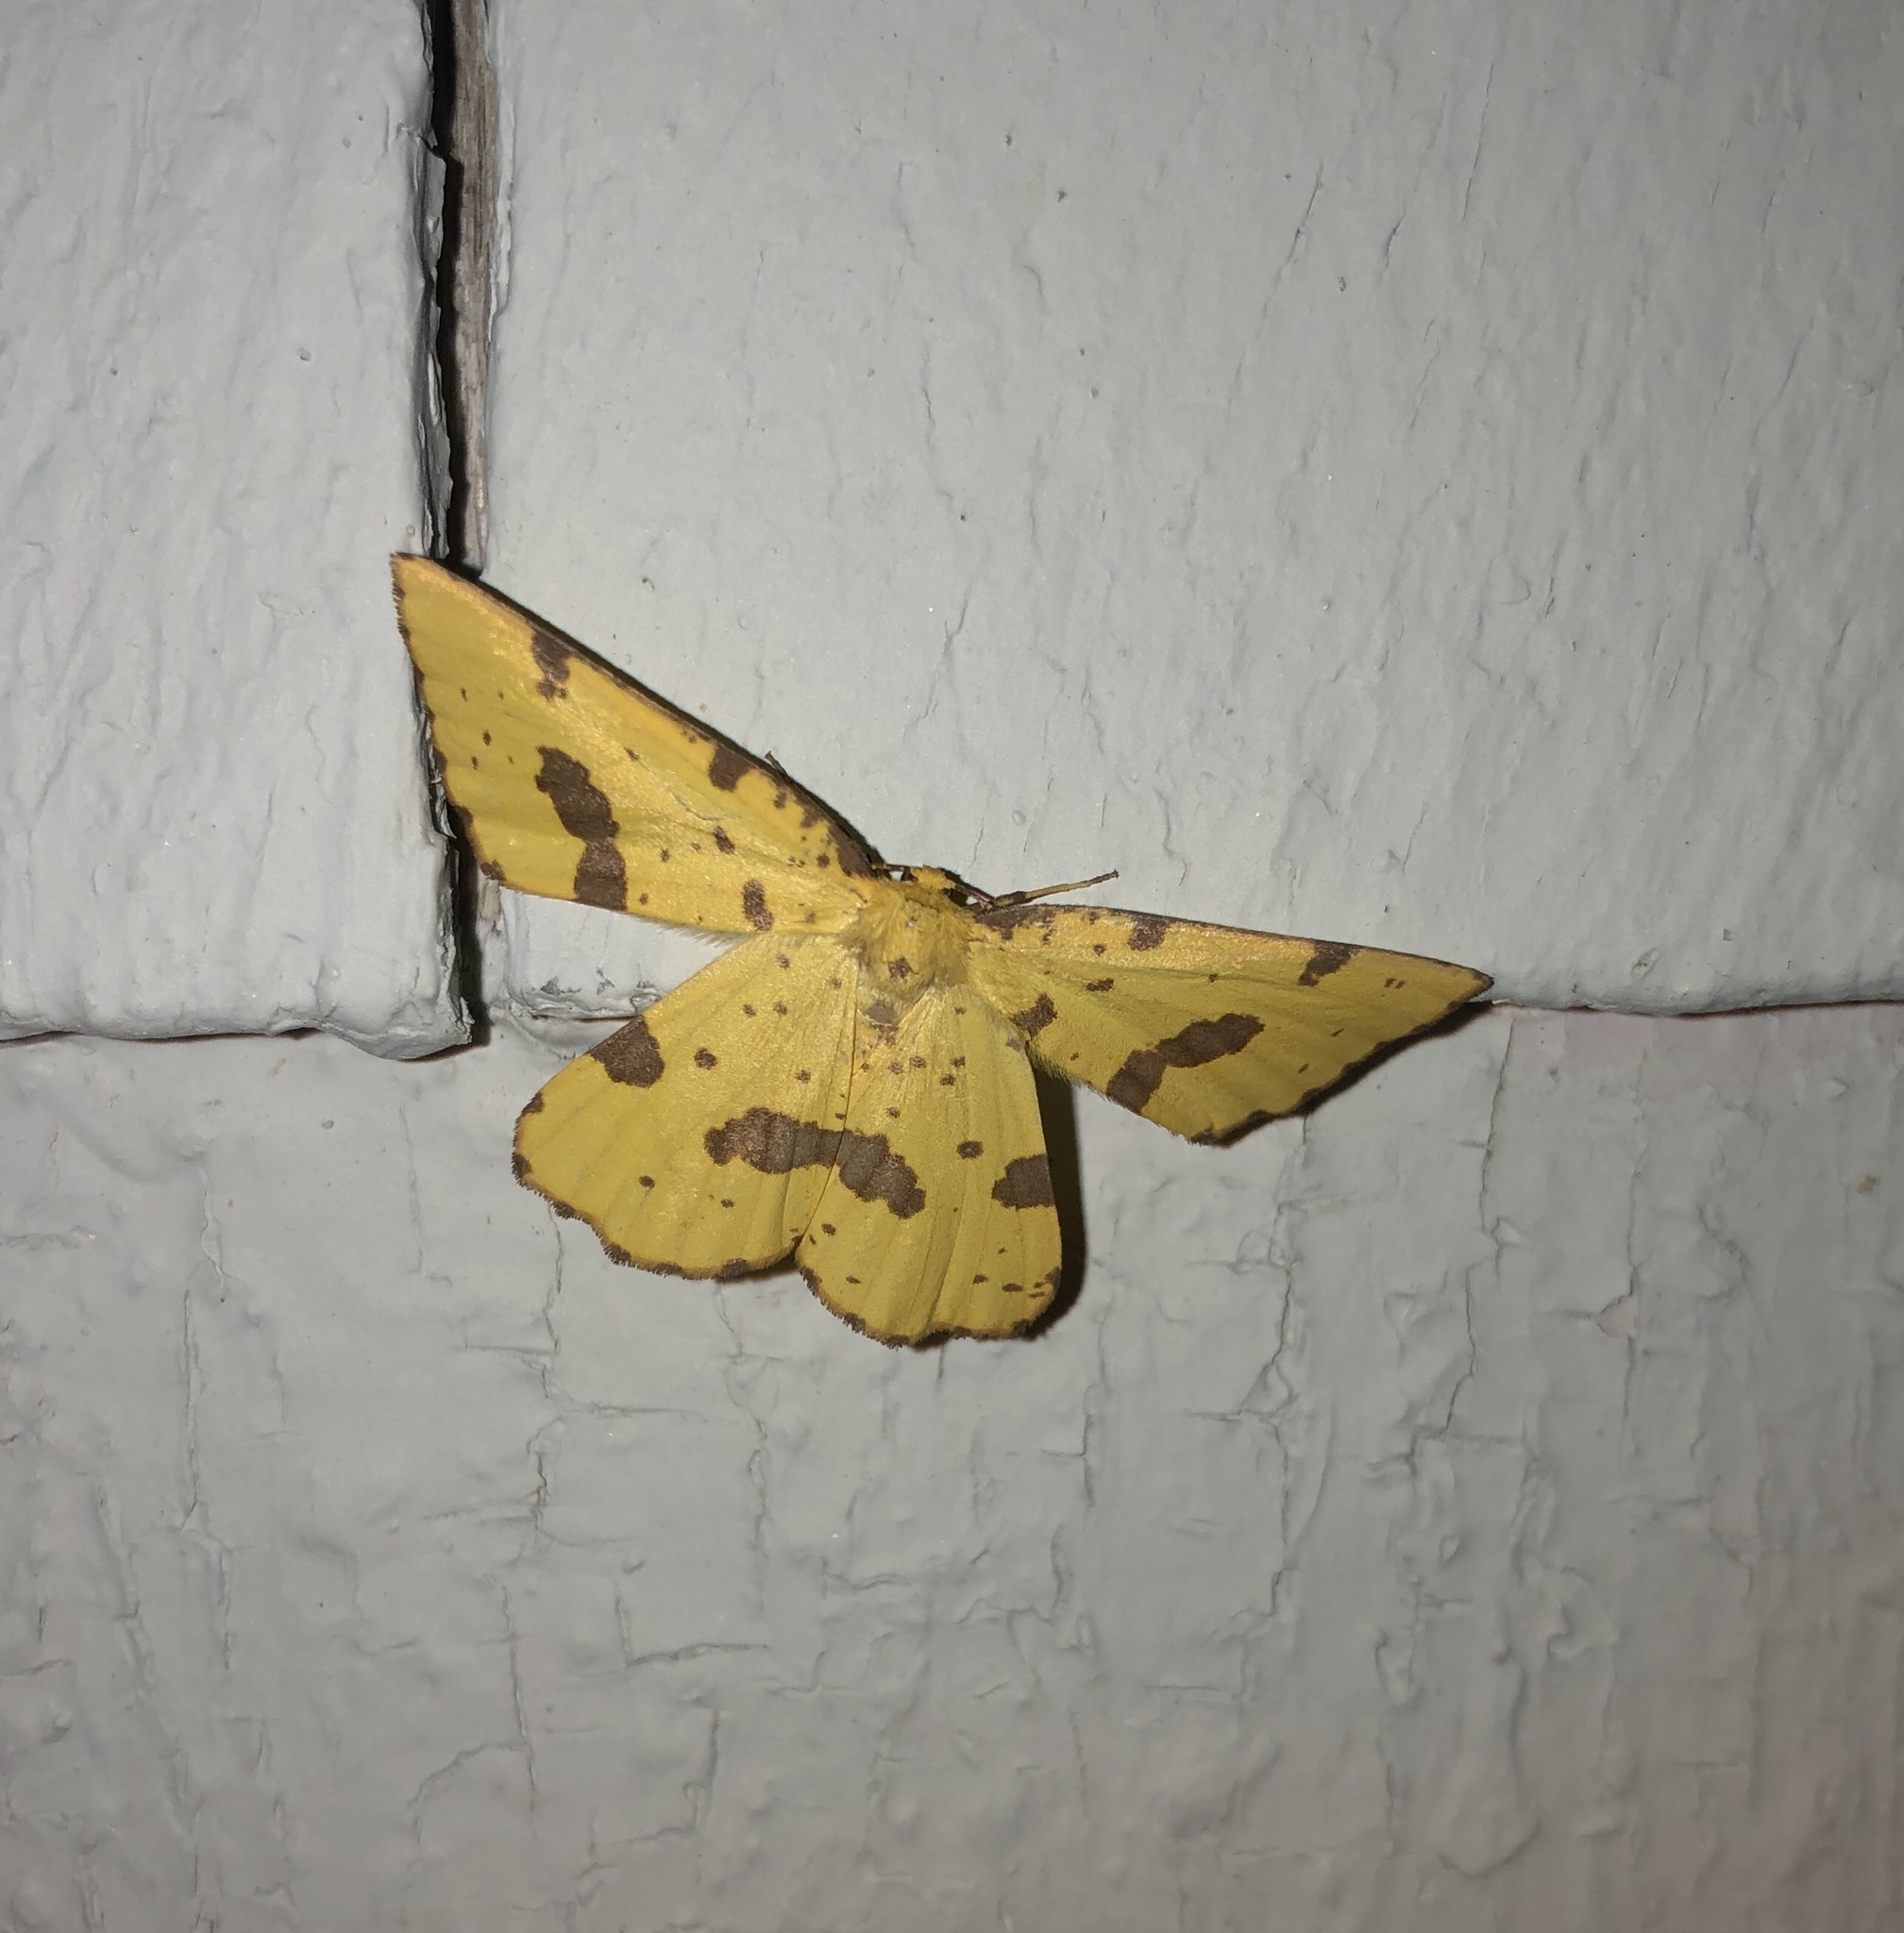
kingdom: Animalia
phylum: Arthropoda
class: Insecta
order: Lepidoptera
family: Geometridae
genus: Xanthotype
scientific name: Xanthotype
